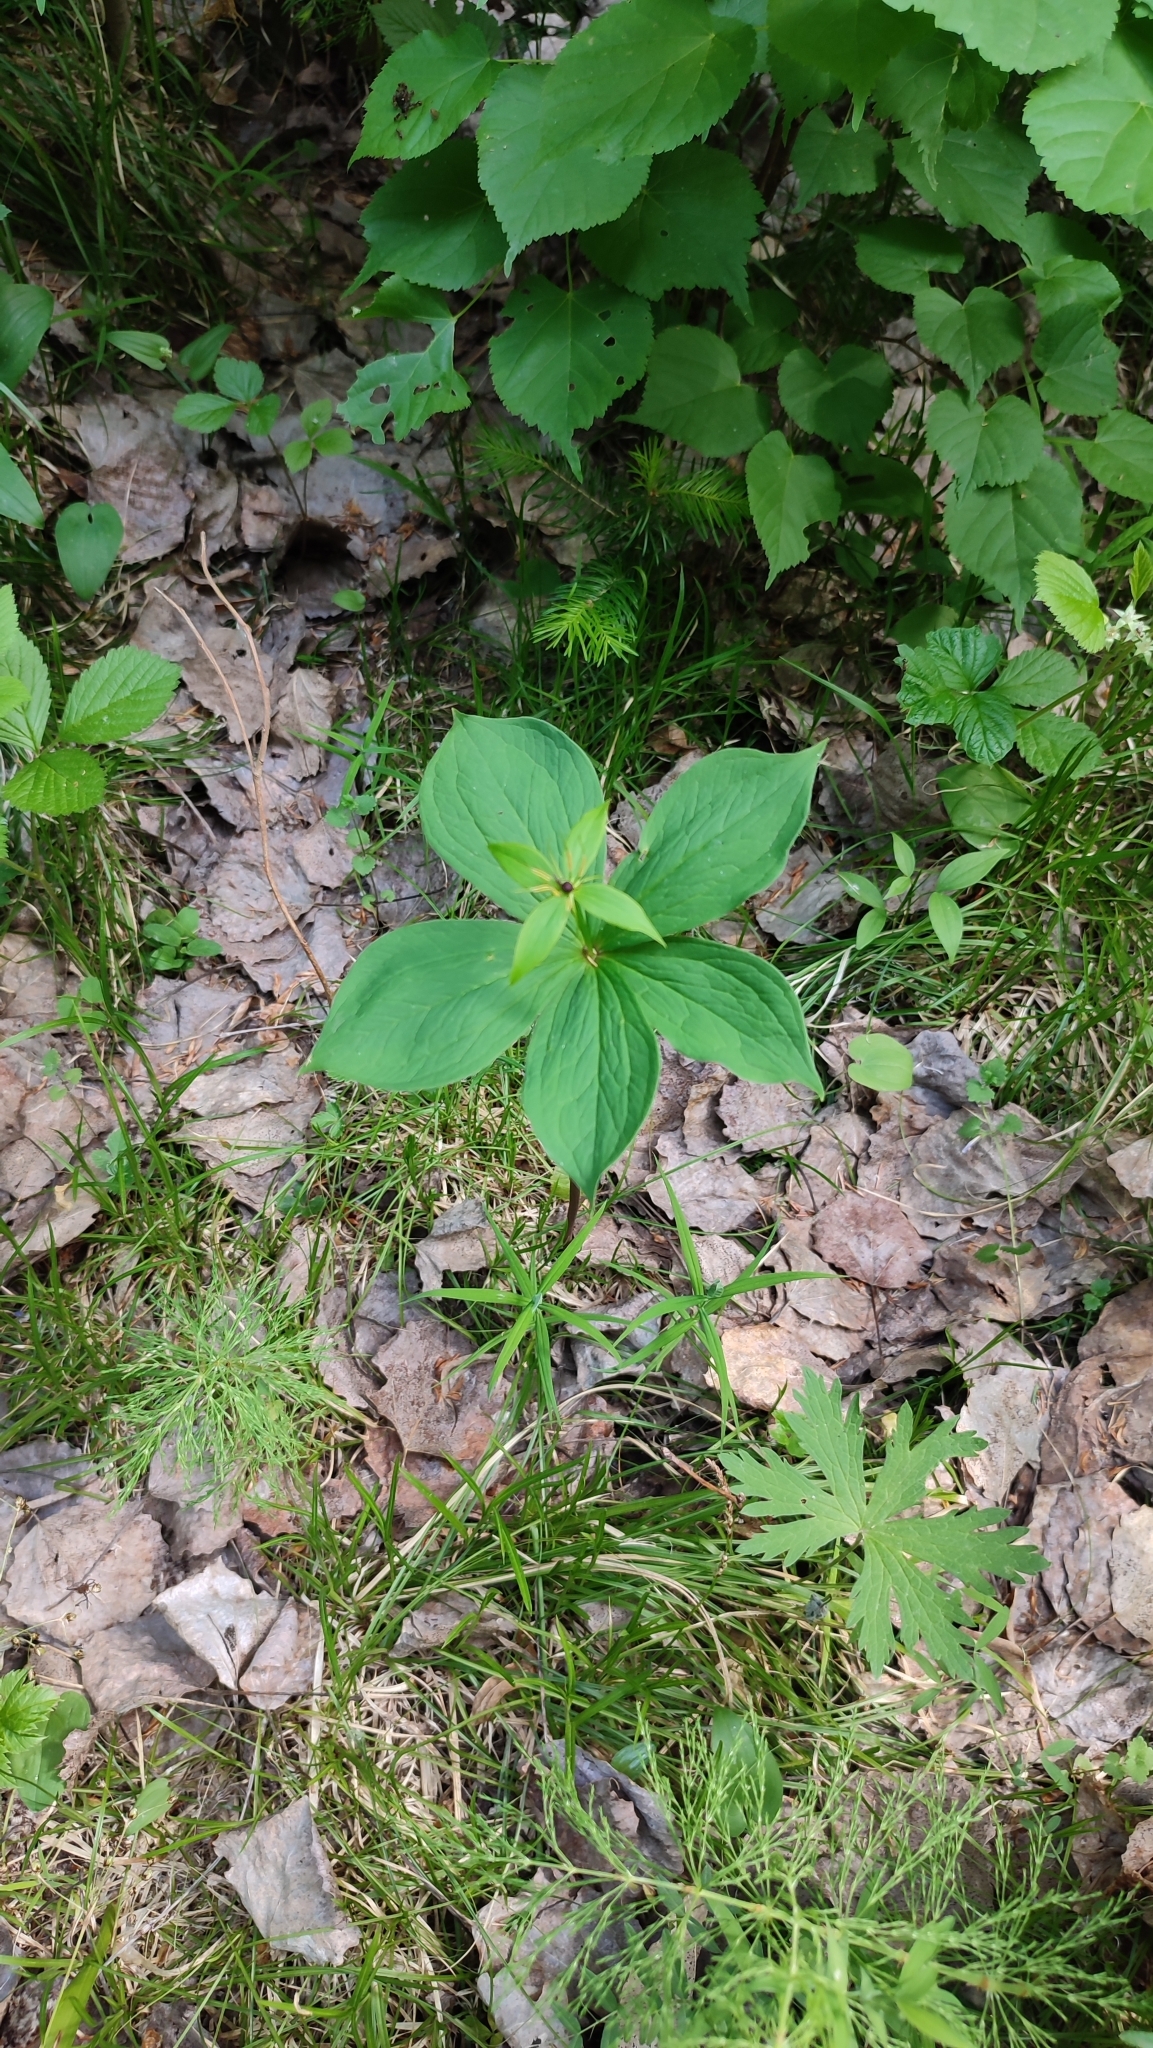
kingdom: Plantae
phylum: Tracheophyta
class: Liliopsida
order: Liliales
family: Melanthiaceae
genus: Paris
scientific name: Paris quadrifolia
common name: Herb-paris
